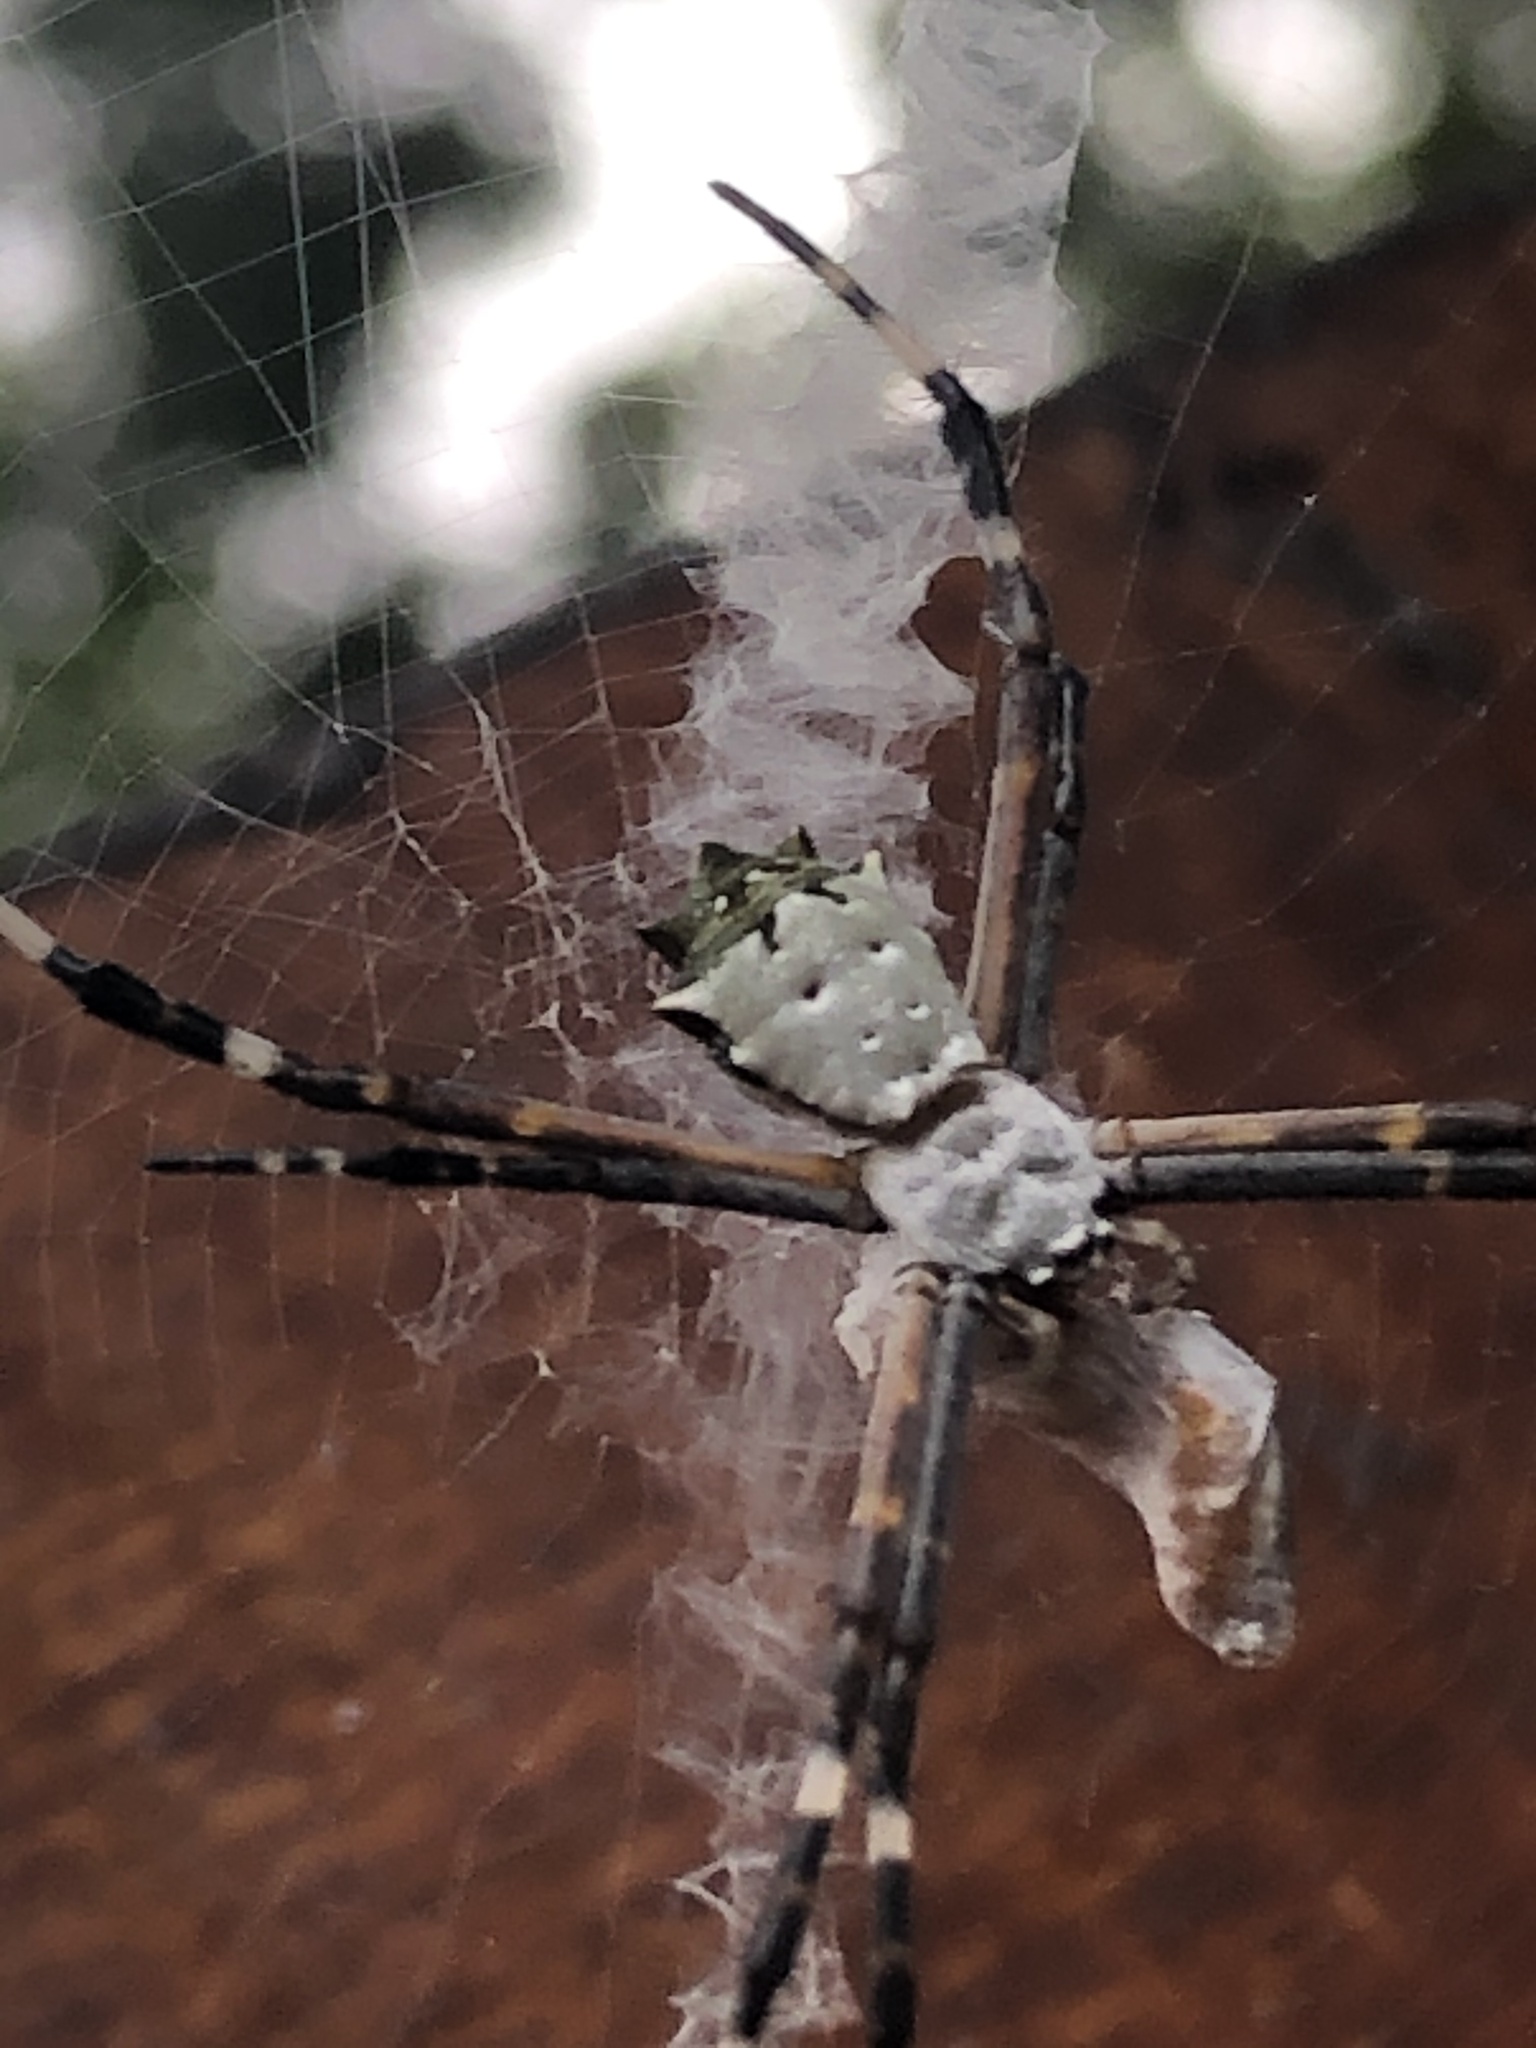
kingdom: Animalia
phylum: Arthropoda
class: Arachnida
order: Araneae
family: Araneidae
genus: Argiope
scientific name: Argiope submaronica
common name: Orb weavers
